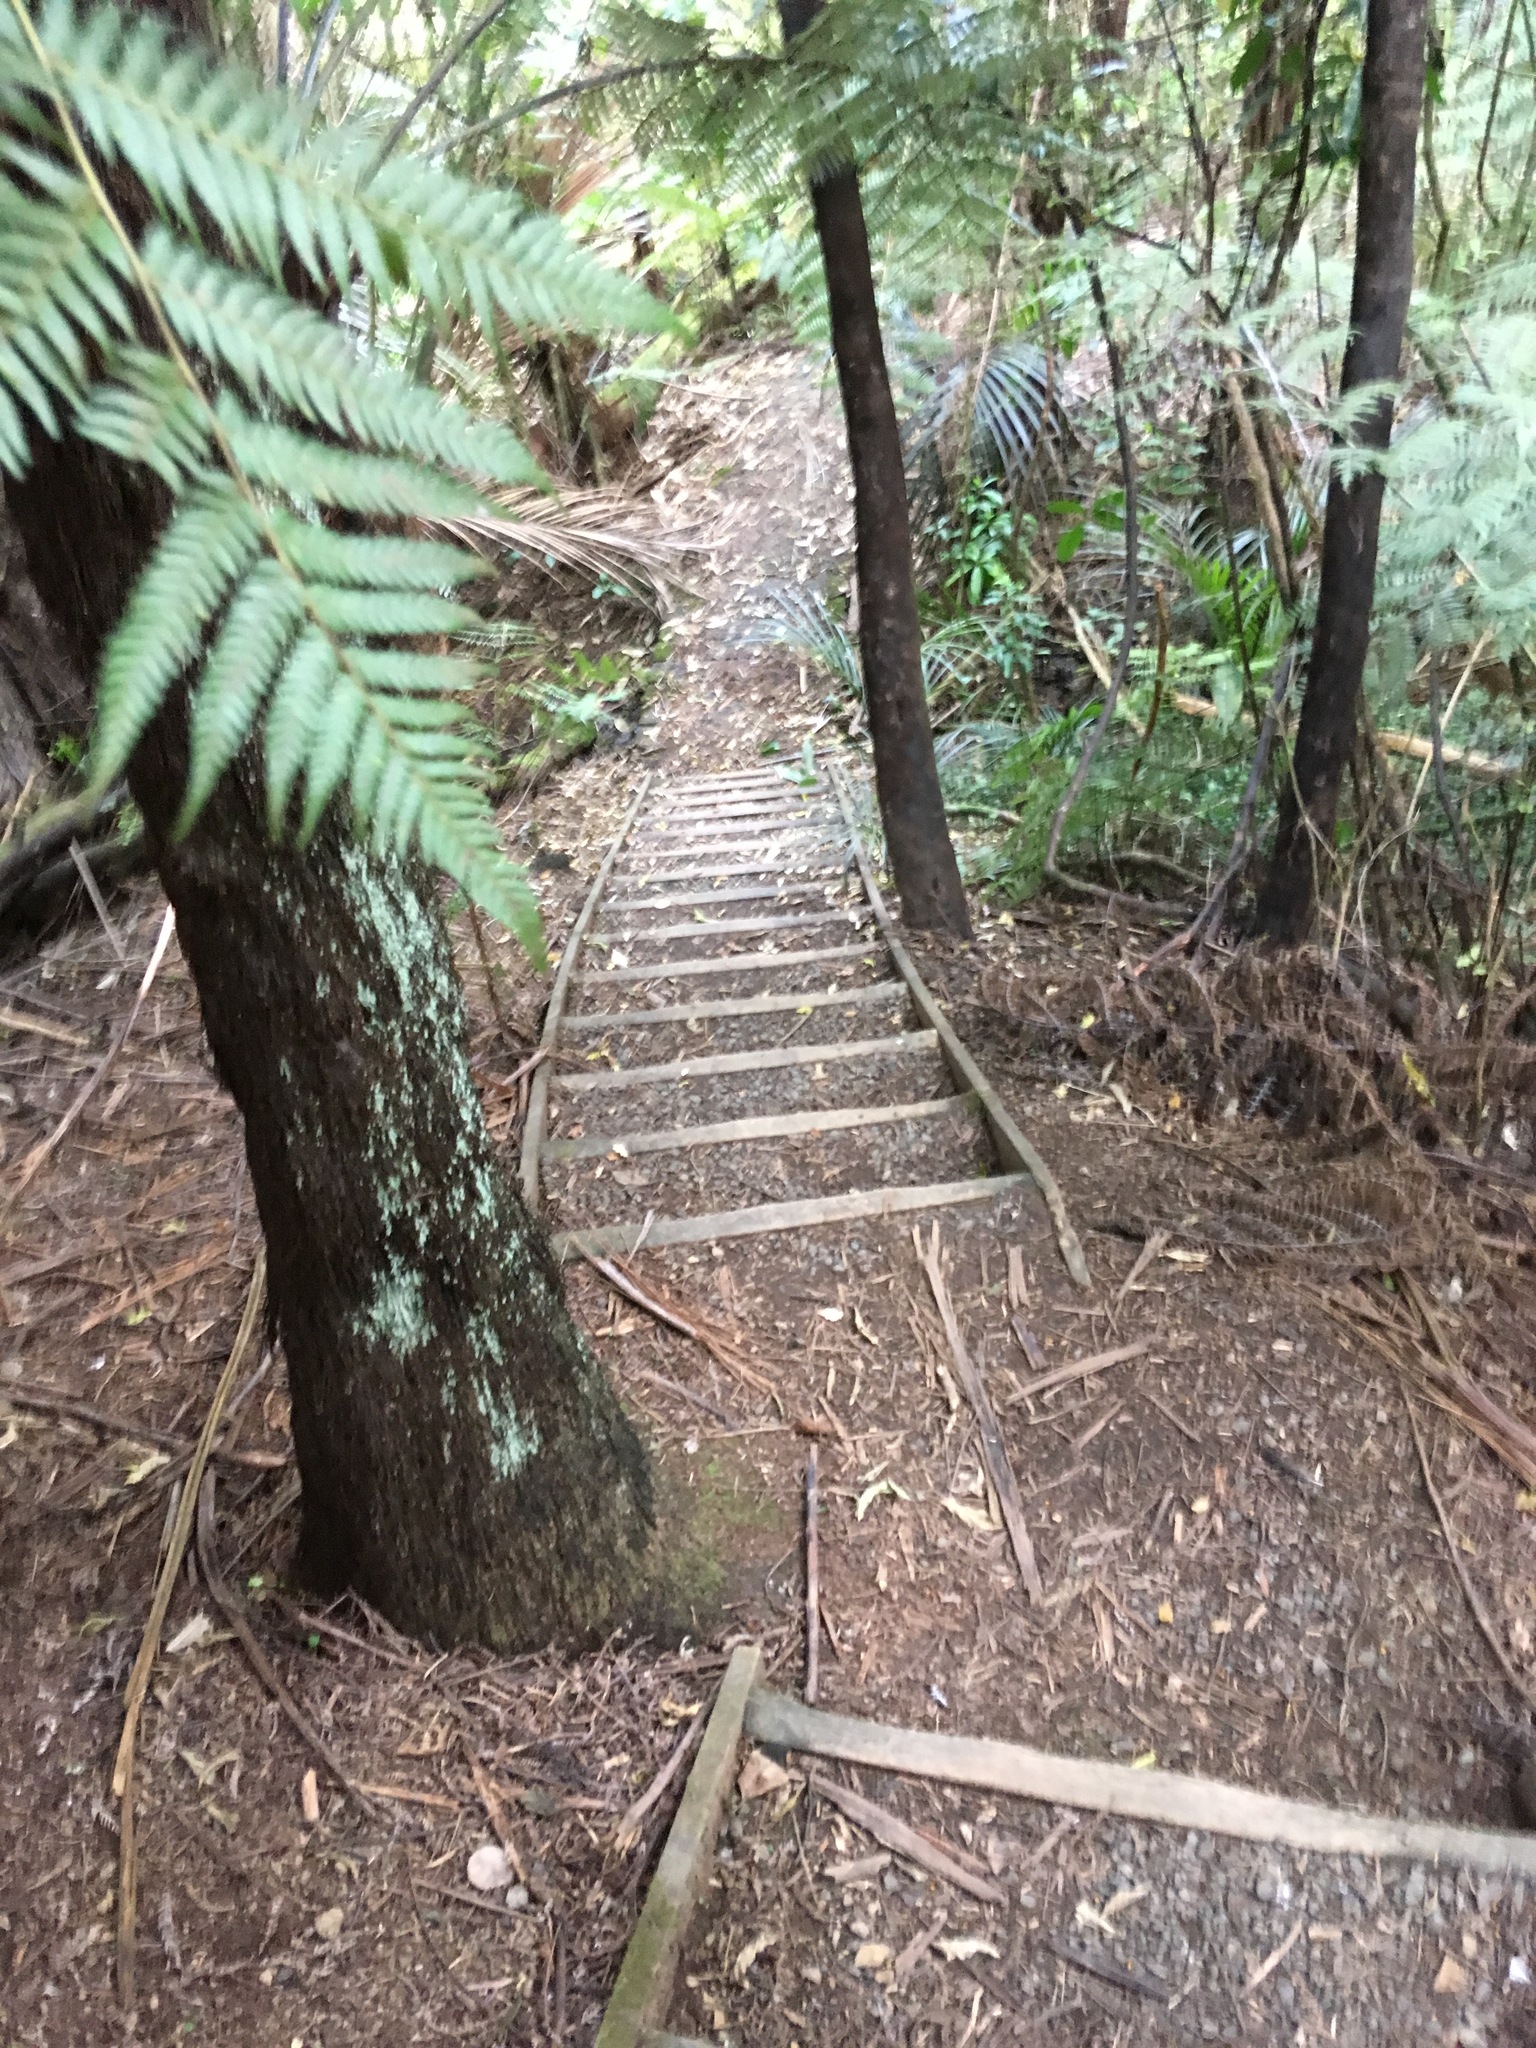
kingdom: Plantae
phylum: Tracheophyta
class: Liliopsida
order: Arecales
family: Arecaceae
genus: Rhopalostylis
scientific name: Rhopalostylis sapida
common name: Feather-duster palm
